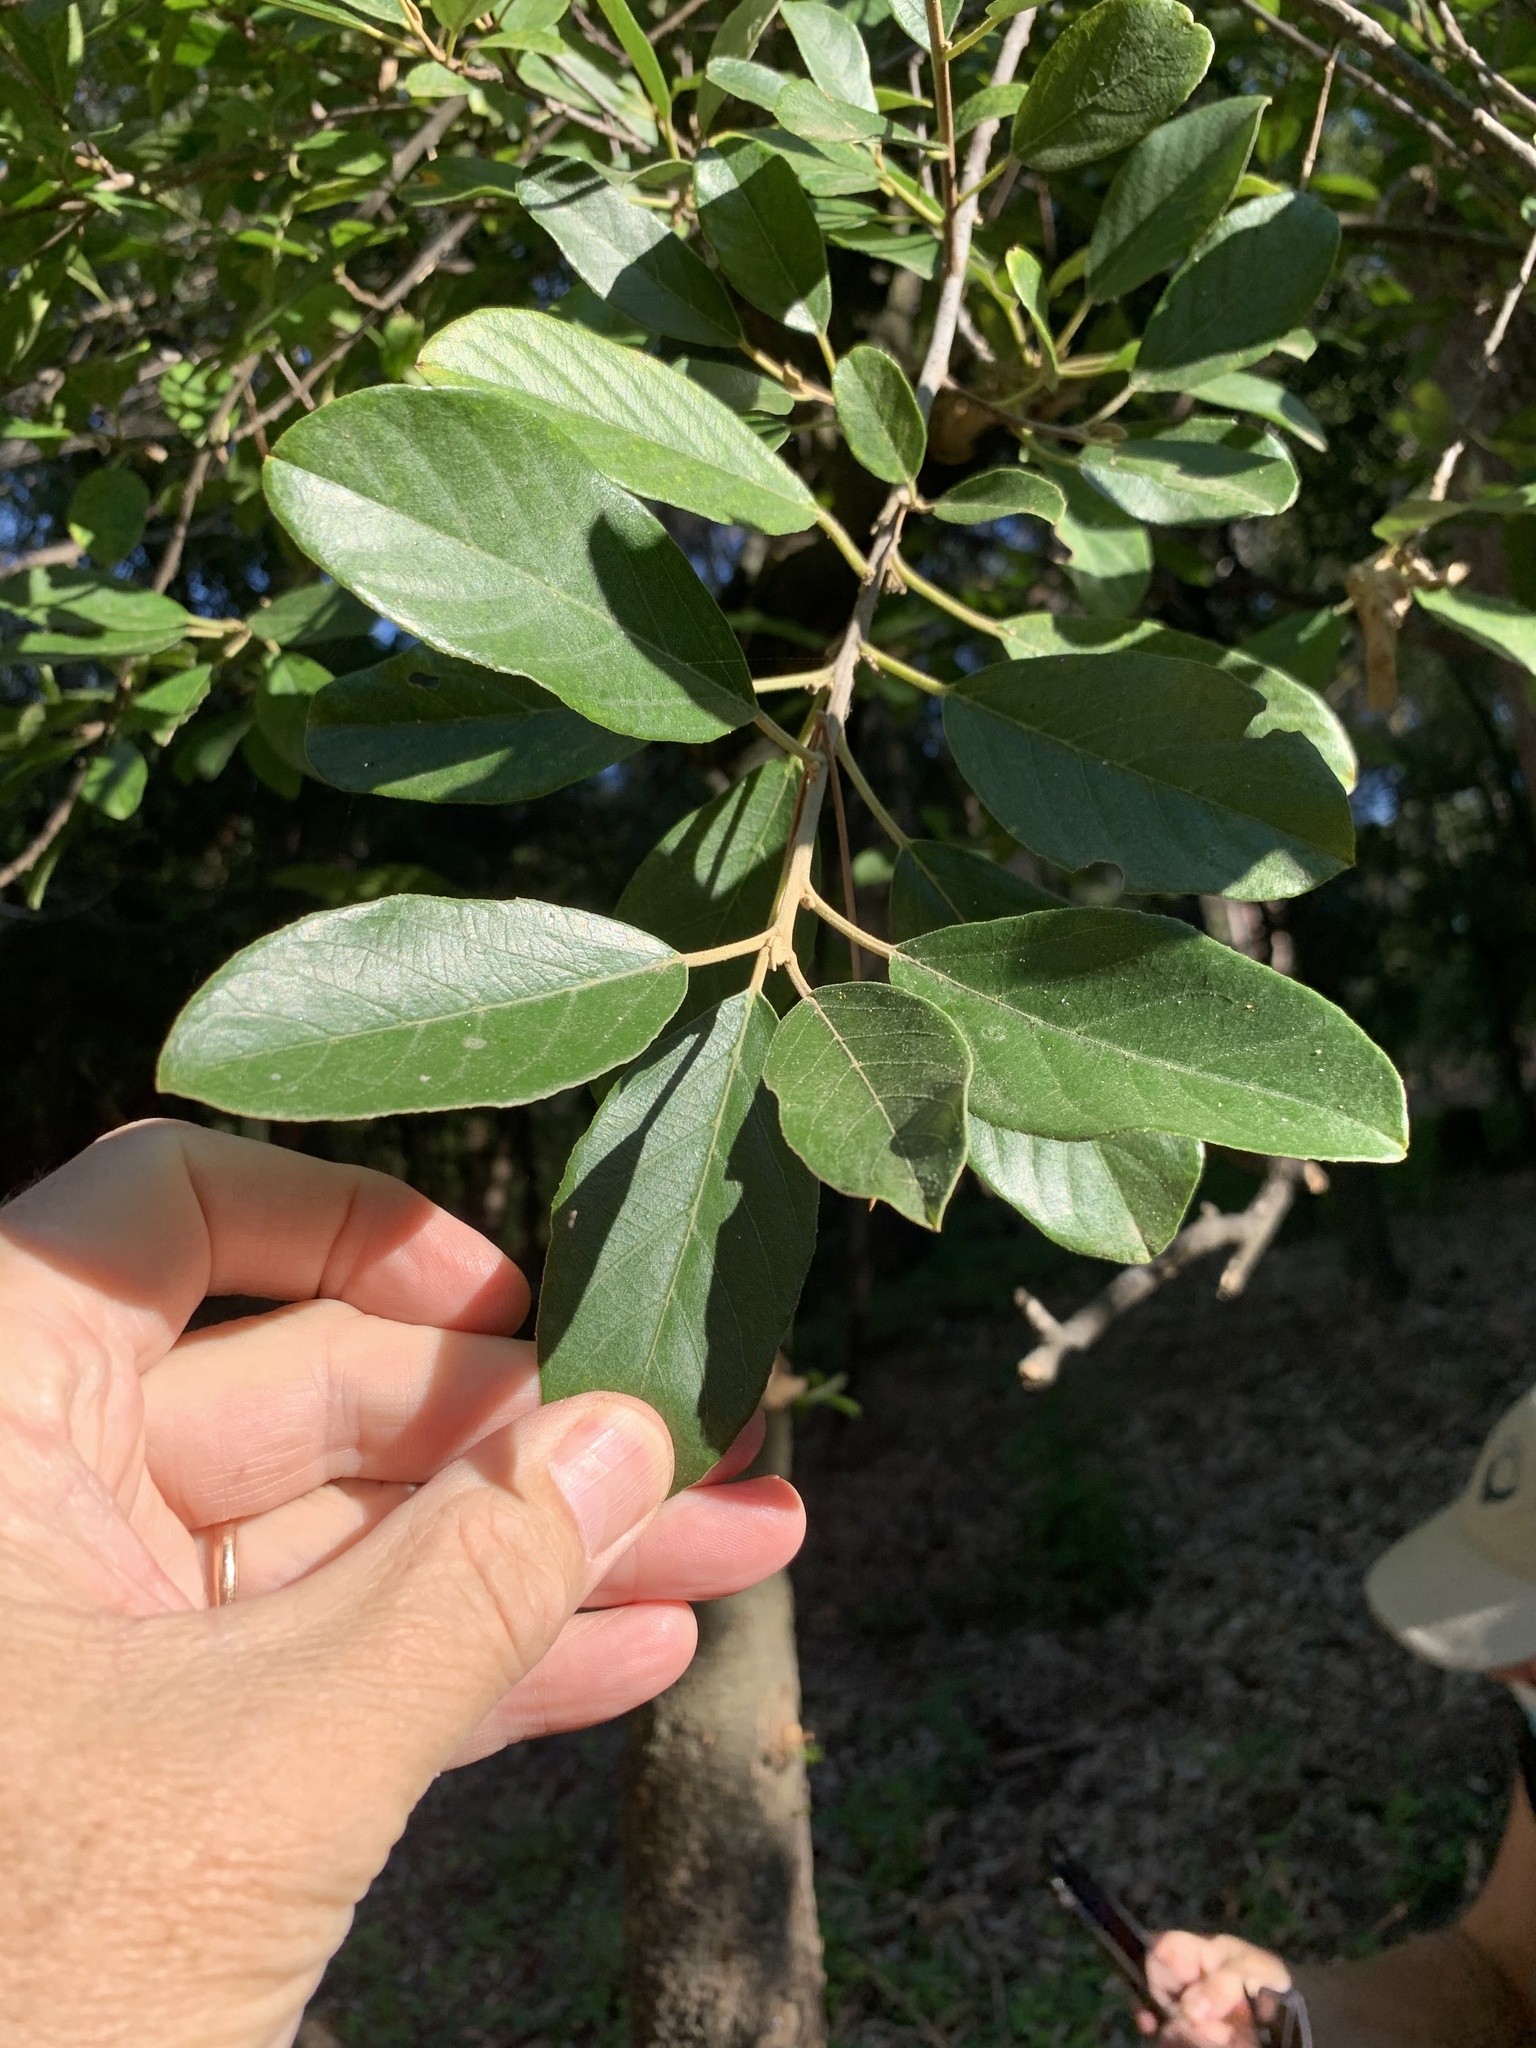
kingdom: Plantae
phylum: Tracheophyta
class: Magnoliopsida
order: Malpighiales
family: Achariaceae
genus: Kiggelaria
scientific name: Kiggelaria africana
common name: Wild peach
